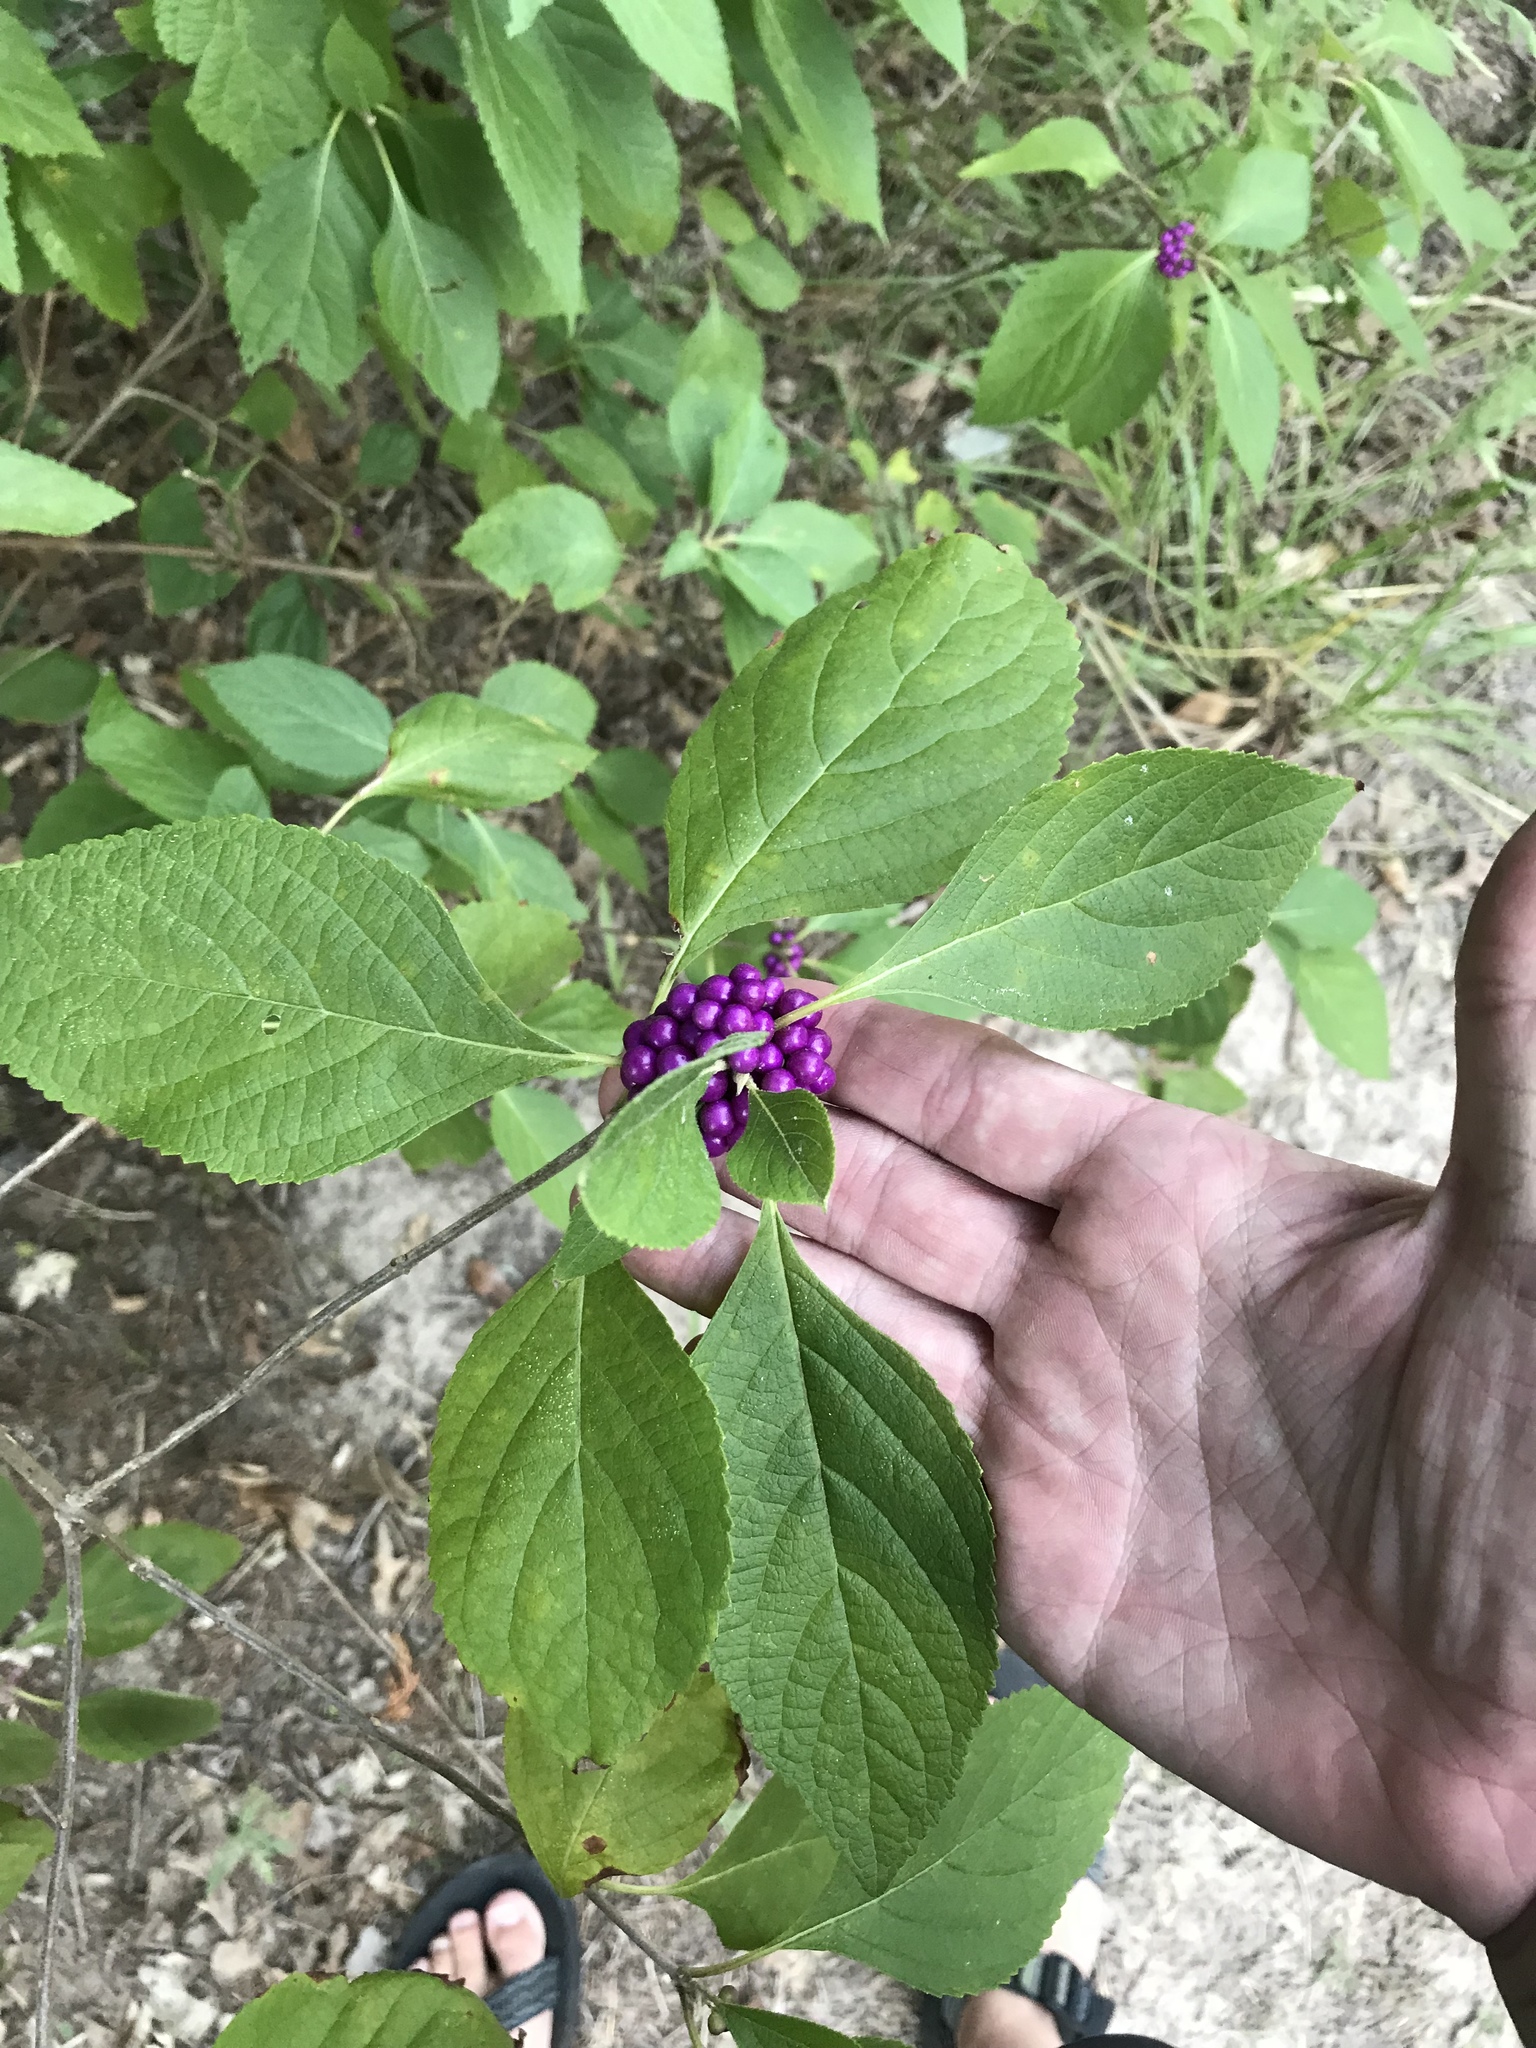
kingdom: Plantae
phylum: Tracheophyta
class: Magnoliopsida
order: Lamiales
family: Lamiaceae
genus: Callicarpa
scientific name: Callicarpa americana
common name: American beautyberry
